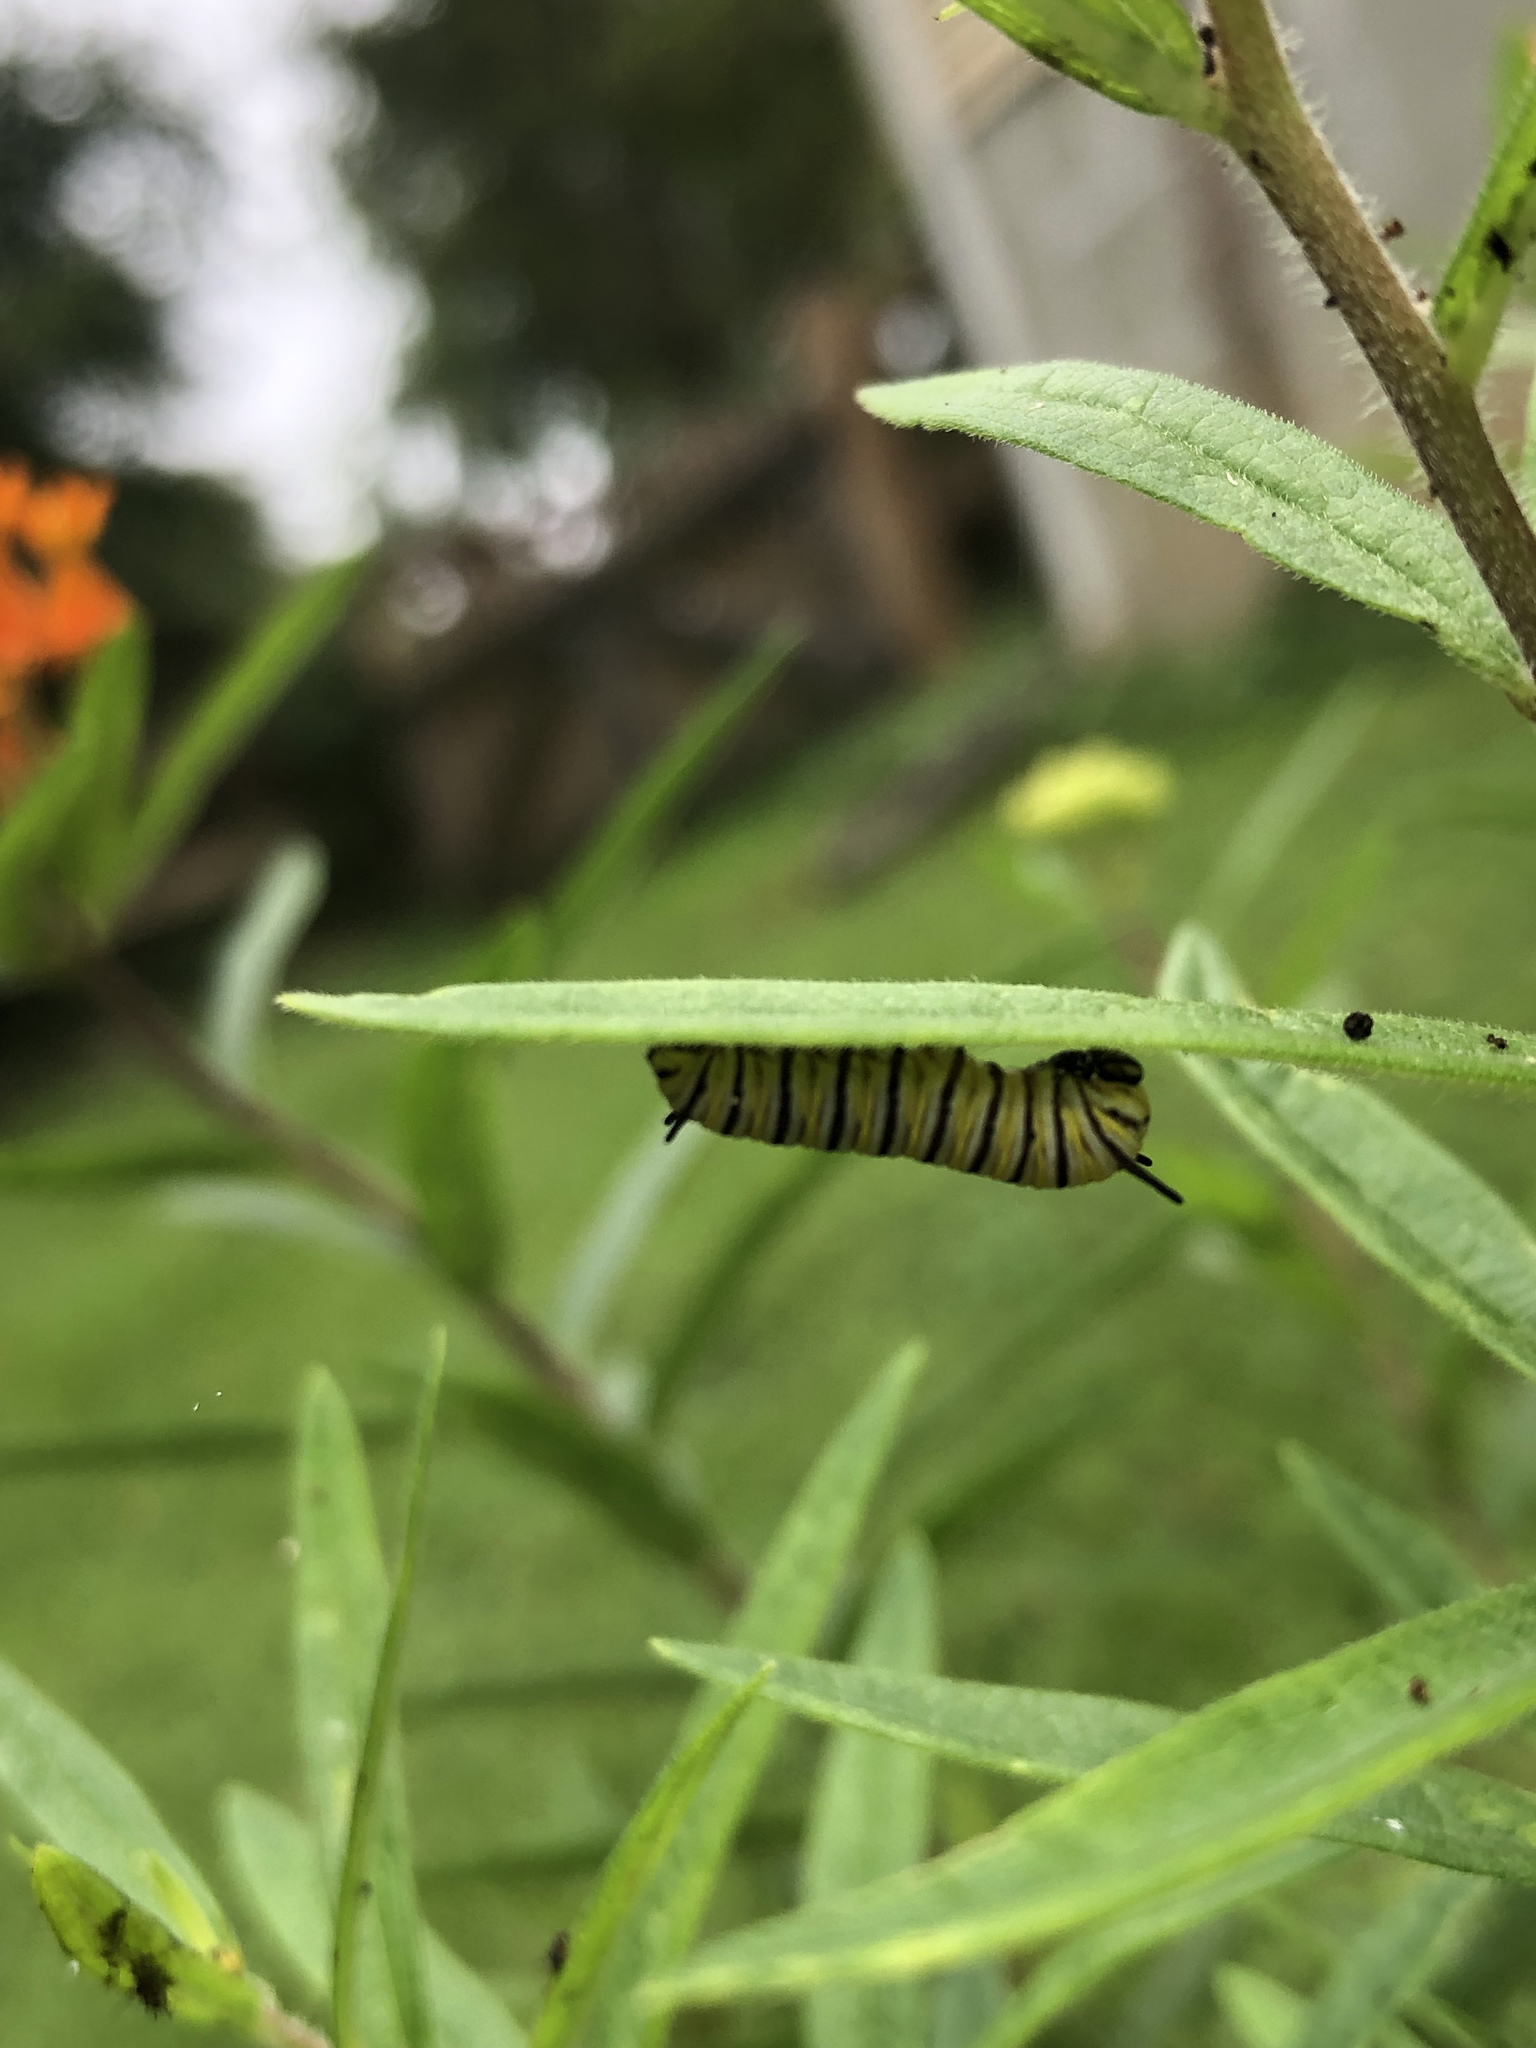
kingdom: Animalia
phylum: Arthropoda
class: Insecta
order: Lepidoptera
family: Nymphalidae
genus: Danaus
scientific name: Danaus plexippus
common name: Monarch
